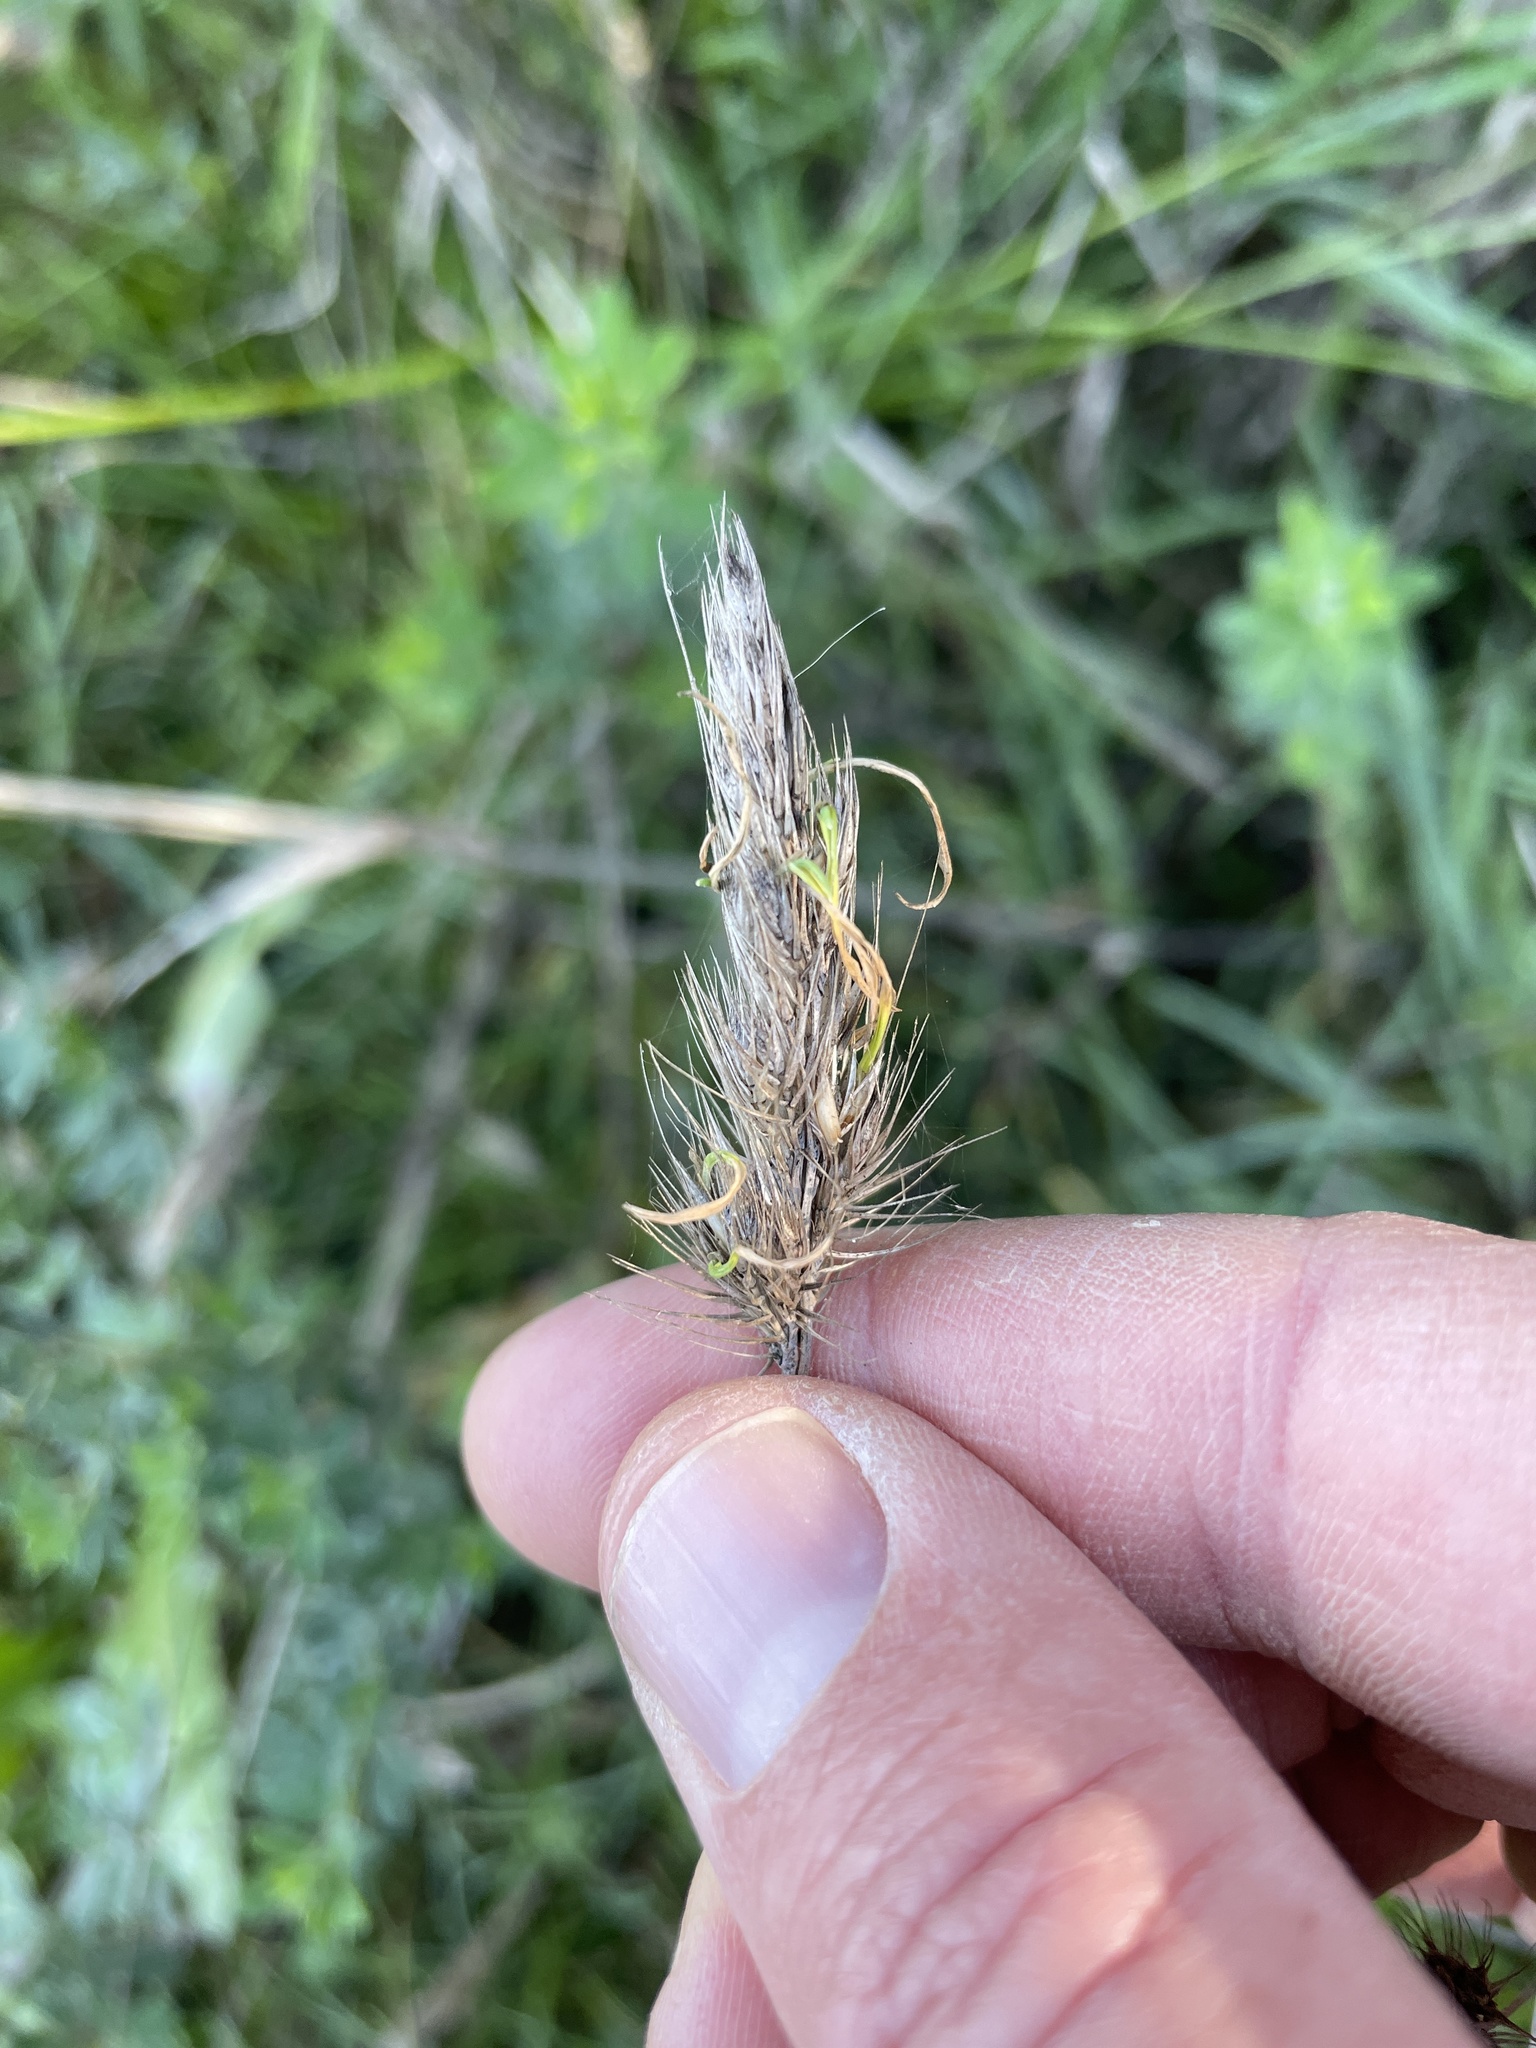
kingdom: Plantae
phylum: Tracheophyta
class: Liliopsida
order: Poales
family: Poaceae
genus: Cynosurus
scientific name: Cynosurus echinatus
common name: Rough dog's-tail
